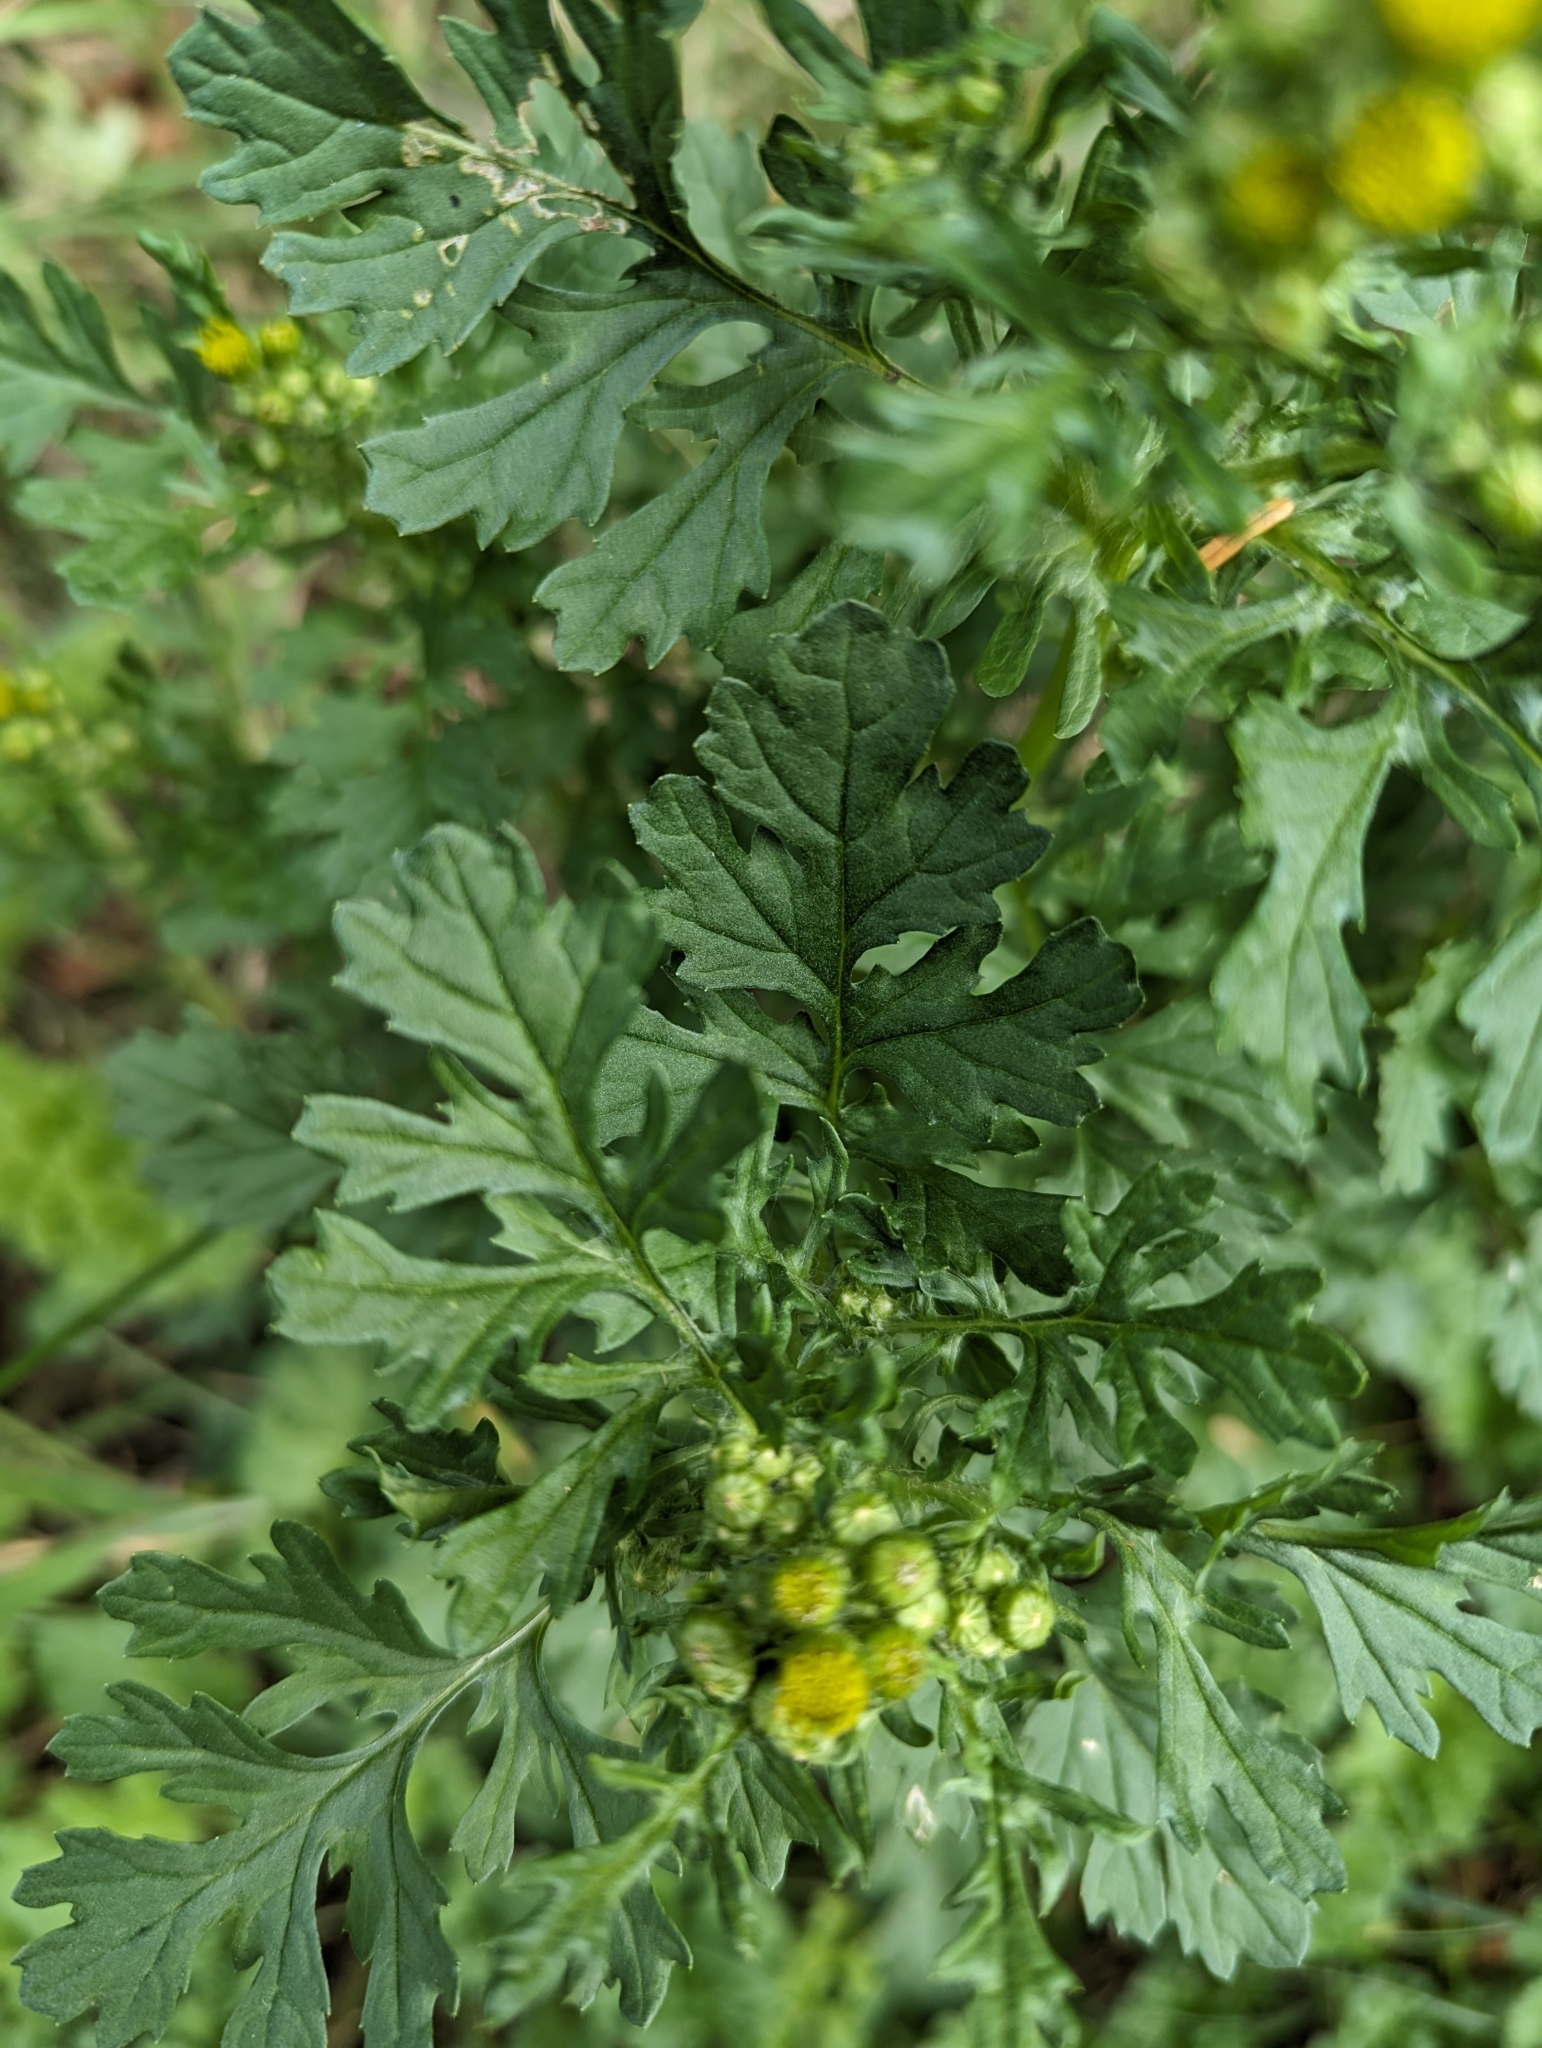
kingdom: Plantae
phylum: Tracheophyta
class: Magnoliopsida
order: Asterales
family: Asteraceae
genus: Jacobaea
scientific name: Jacobaea vulgaris
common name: Stinking willie
